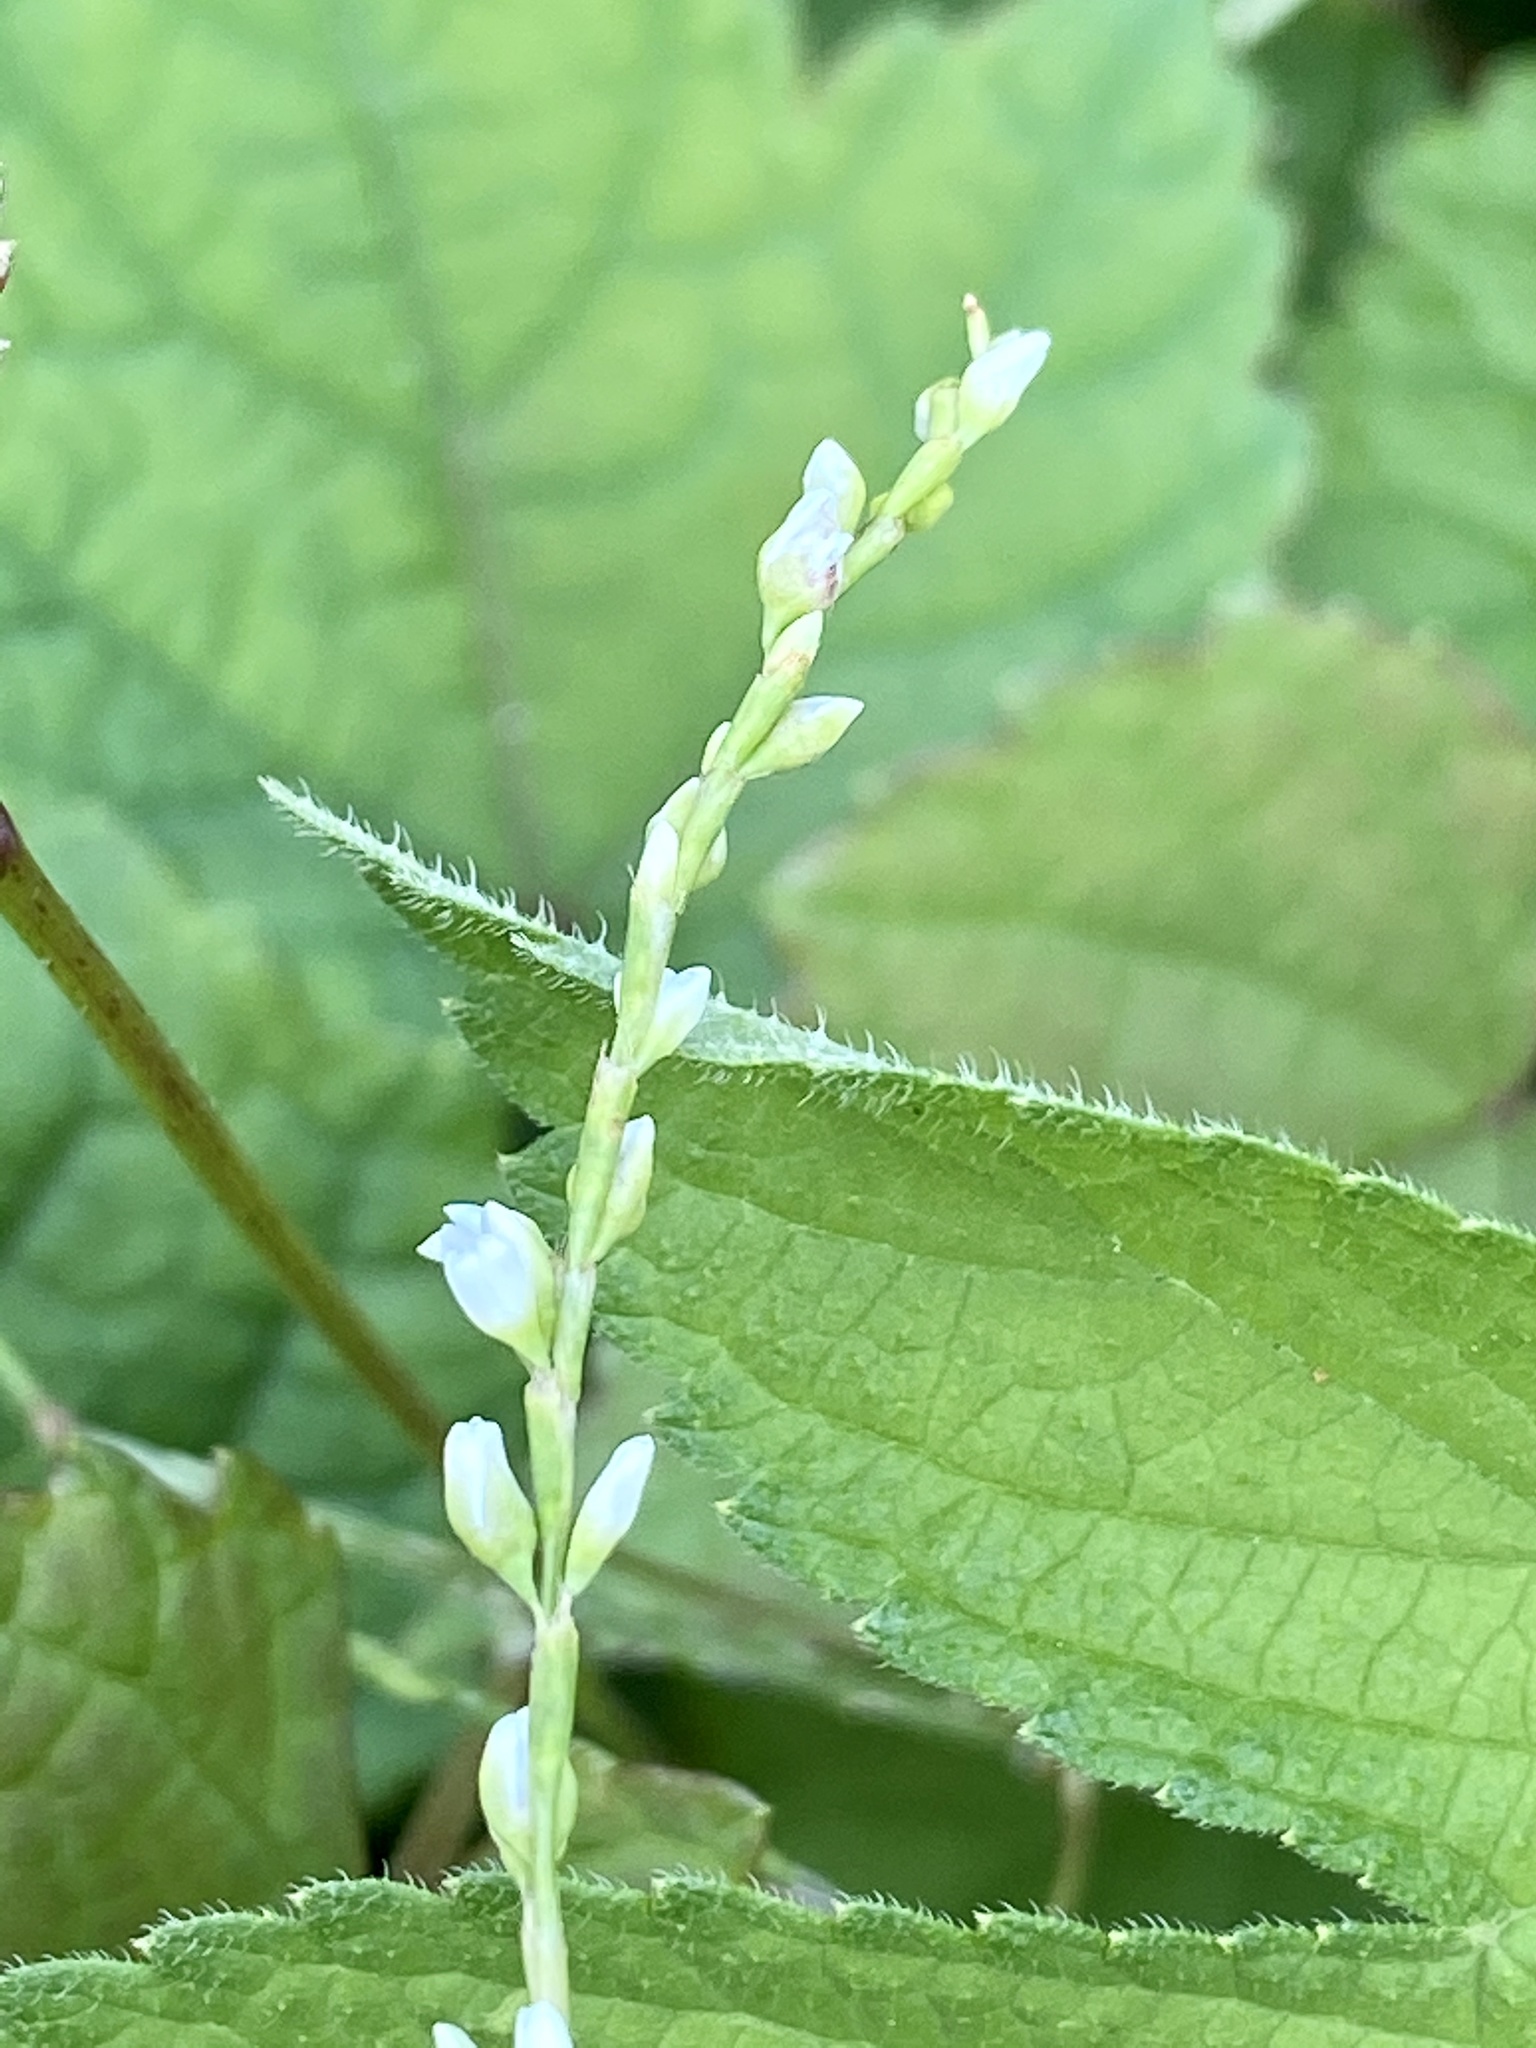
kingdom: Plantae
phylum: Tracheophyta
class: Magnoliopsida
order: Caryophyllales
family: Polygonaceae
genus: Persicaria
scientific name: Persicaria punctata
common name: Dotted smartweed
